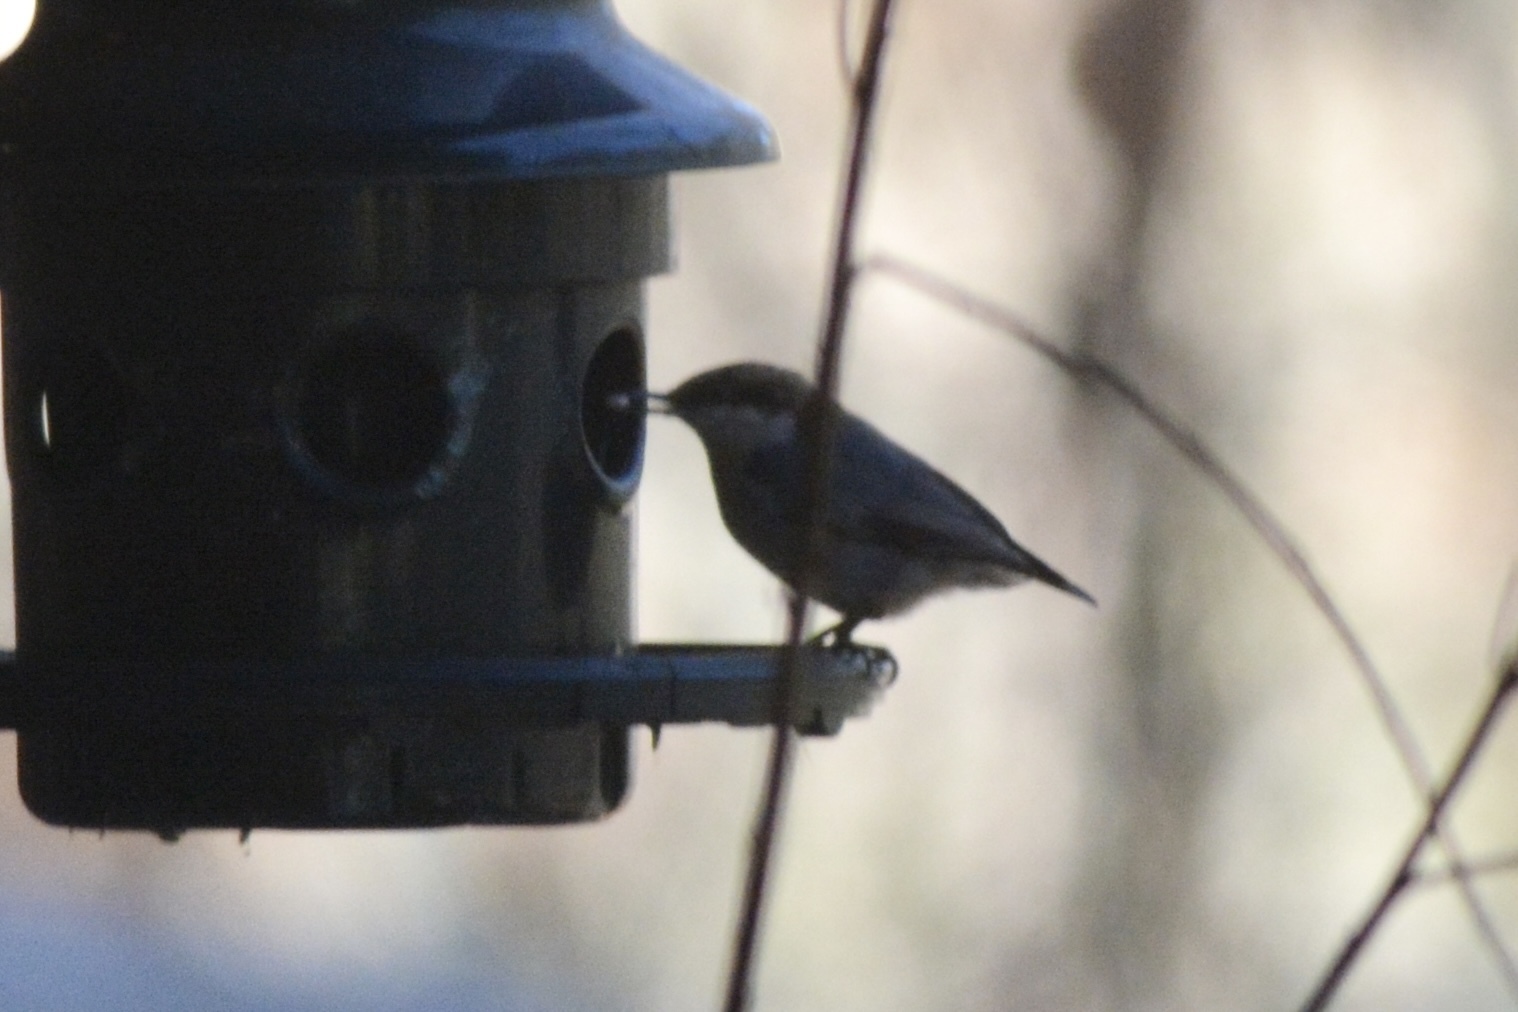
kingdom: Animalia
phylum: Chordata
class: Aves
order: Passeriformes
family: Sittidae
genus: Sitta
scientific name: Sitta pusilla
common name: Brown-headed nuthatch
